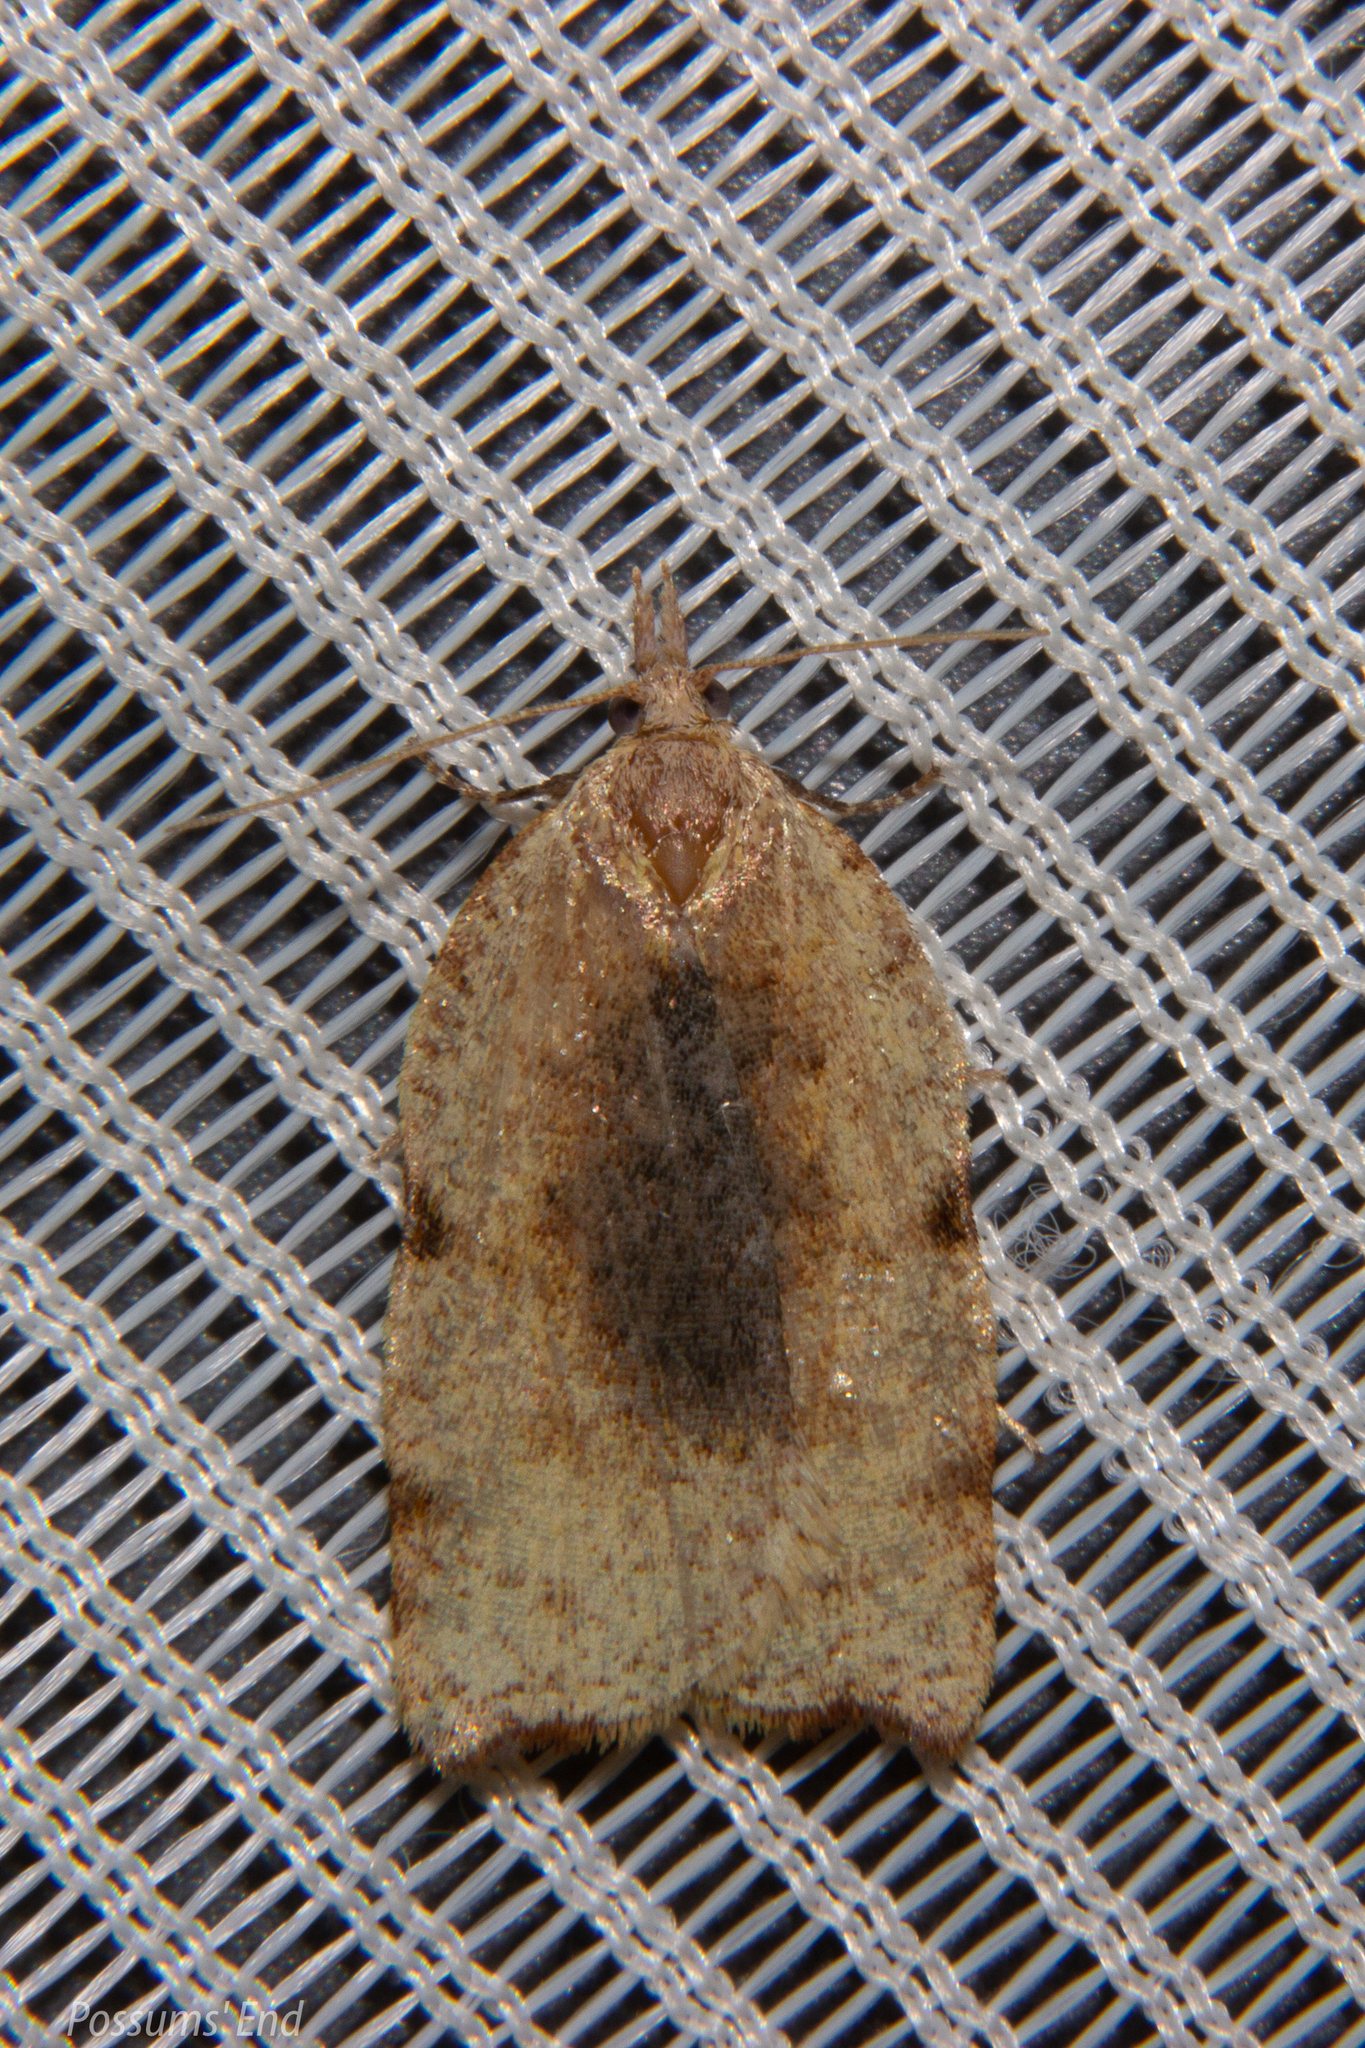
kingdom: Animalia
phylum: Arthropoda
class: Insecta
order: Lepidoptera
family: Tortricidae
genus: Apoctena
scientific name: Apoctena flavescens
